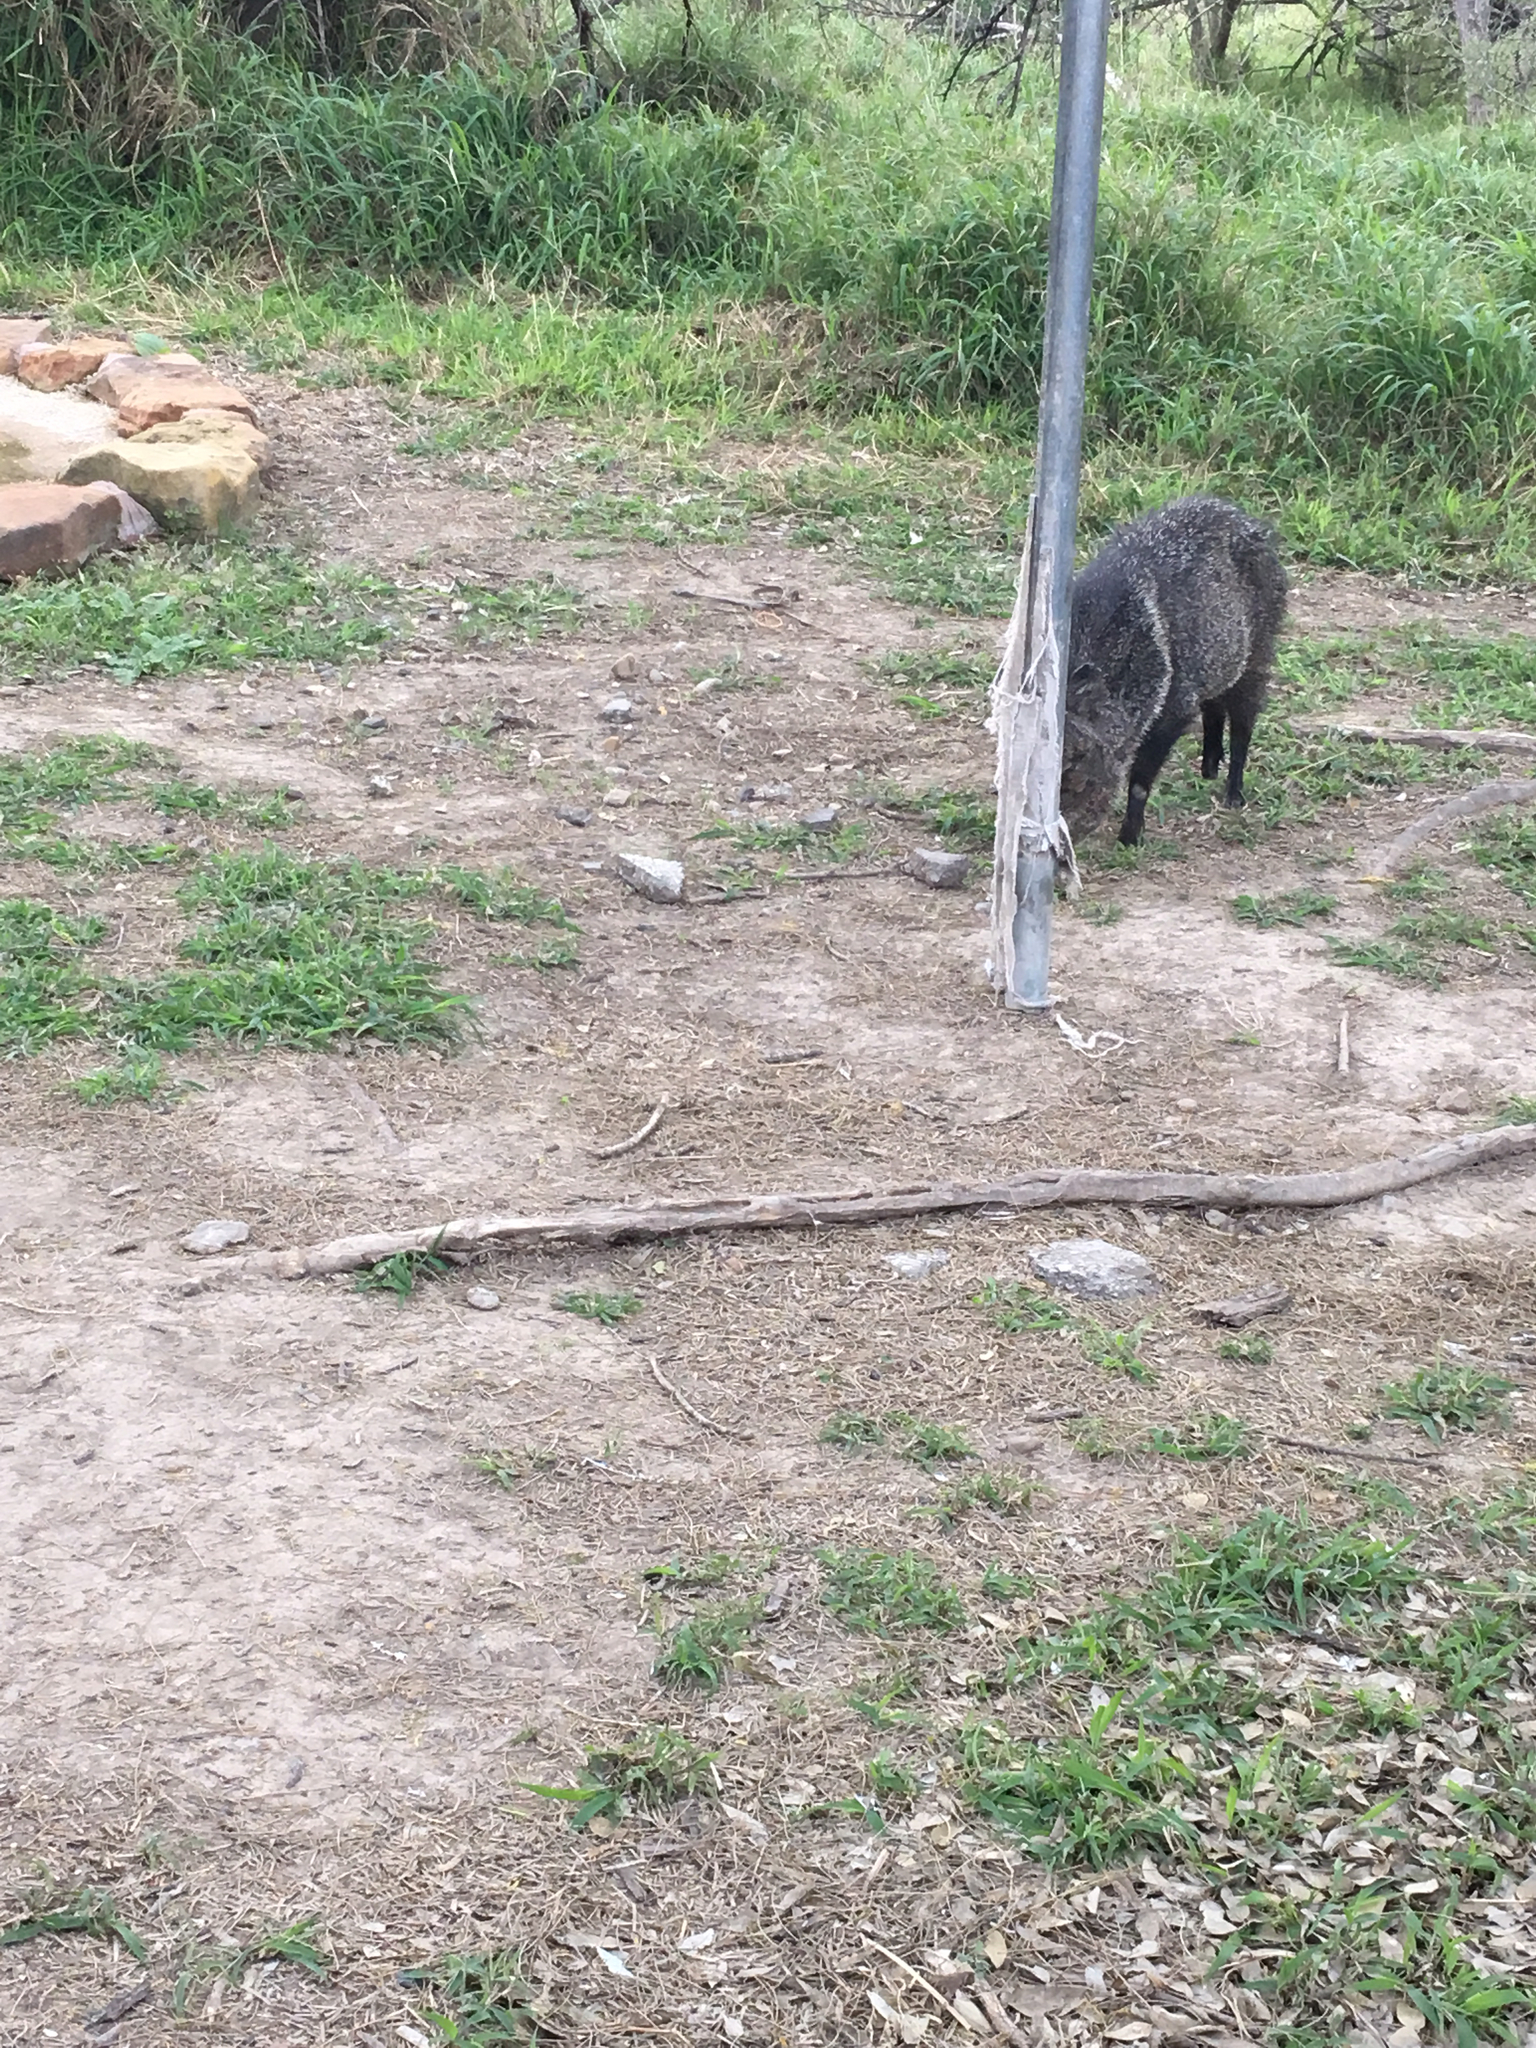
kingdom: Animalia
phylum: Chordata
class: Mammalia
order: Artiodactyla
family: Tayassuidae
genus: Pecari
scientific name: Pecari tajacu
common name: Collared peccary
